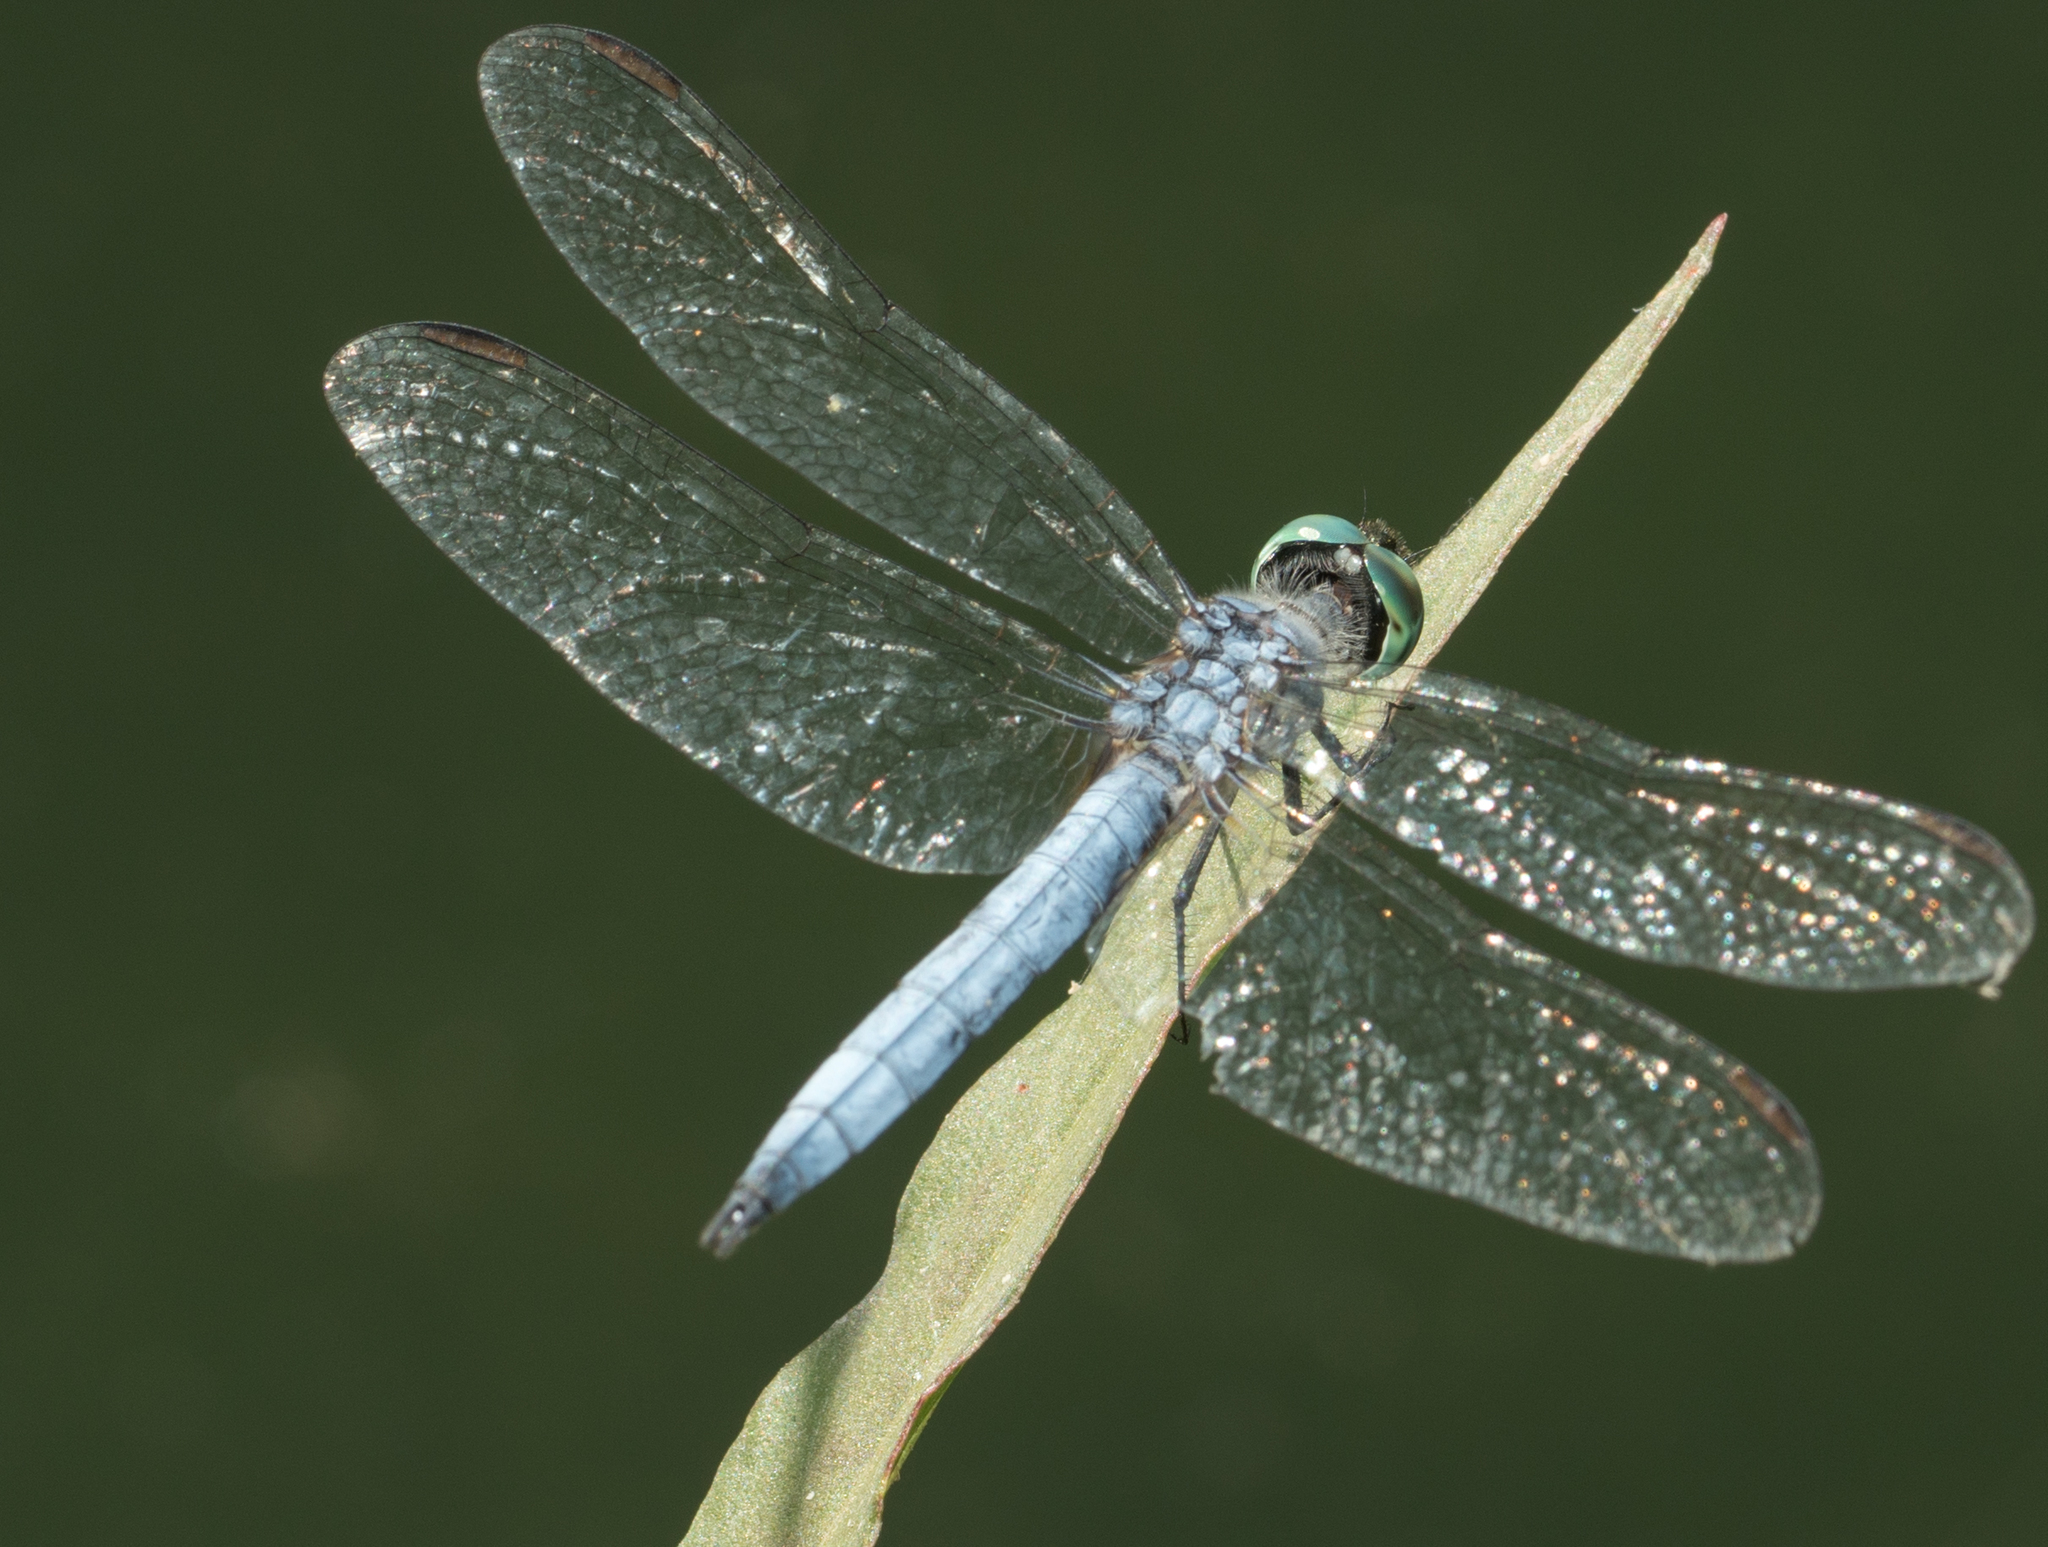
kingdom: Animalia
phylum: Arthropoda
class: Insecta
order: Odonata
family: Libellulidae
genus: Pachydiplax
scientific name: Pachydiplax longipennis
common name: Blue dasher
